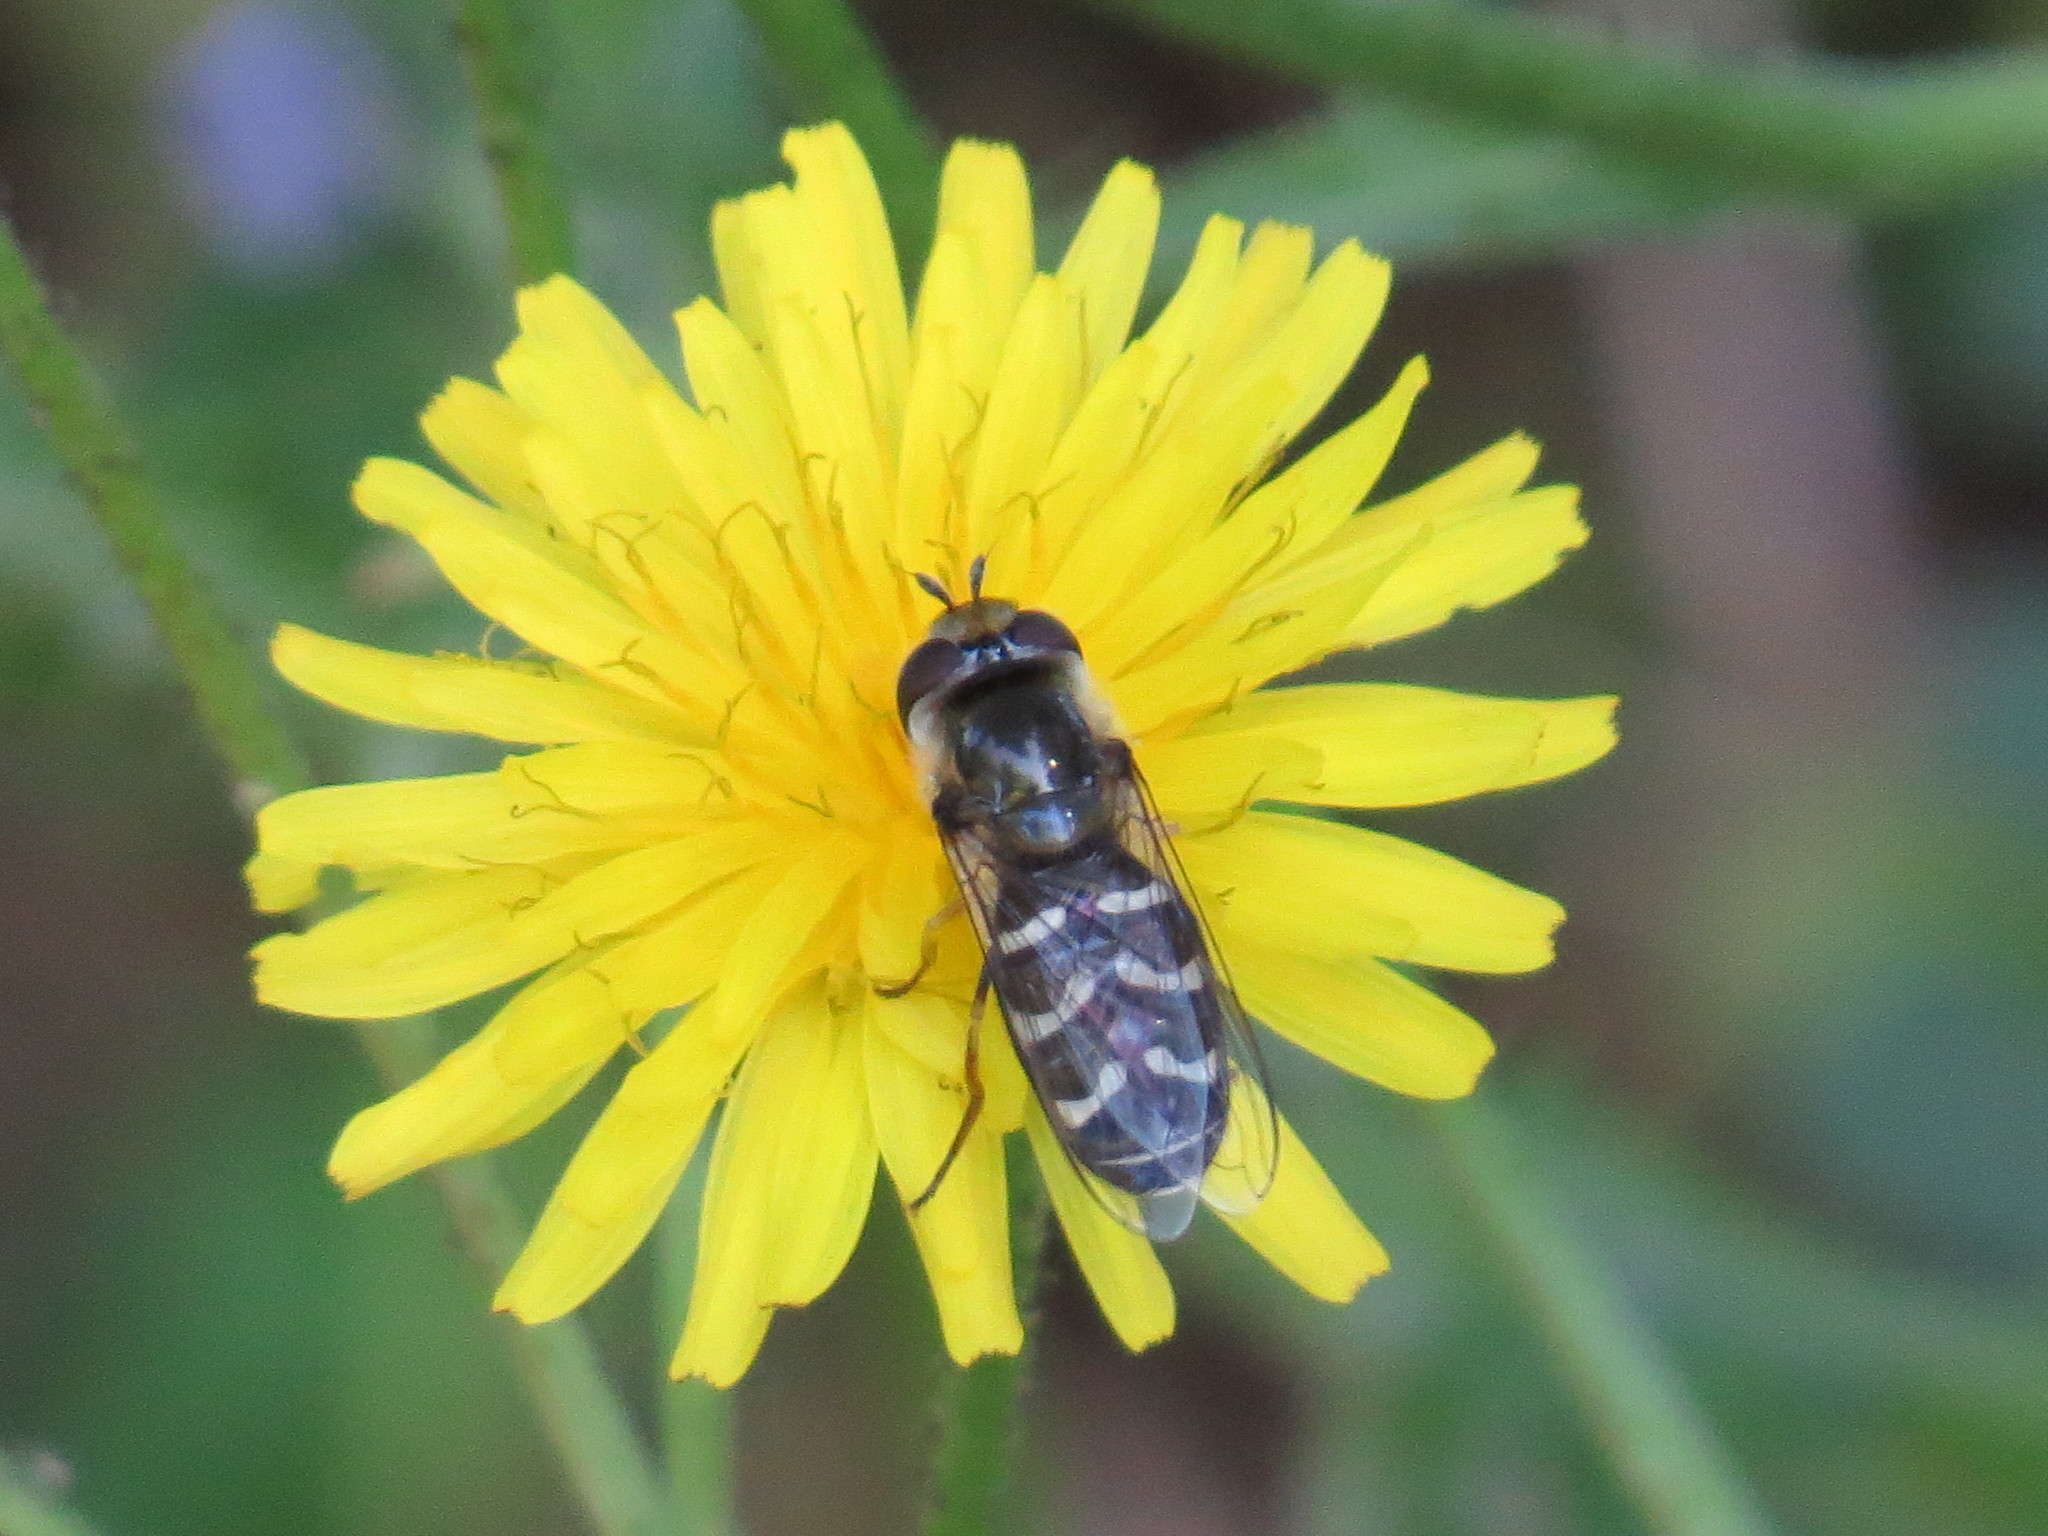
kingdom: Animalia
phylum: Arthropoda
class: Insecta
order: Diptera
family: Syrphidae
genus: Scaeva
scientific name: Scaeva affinis
